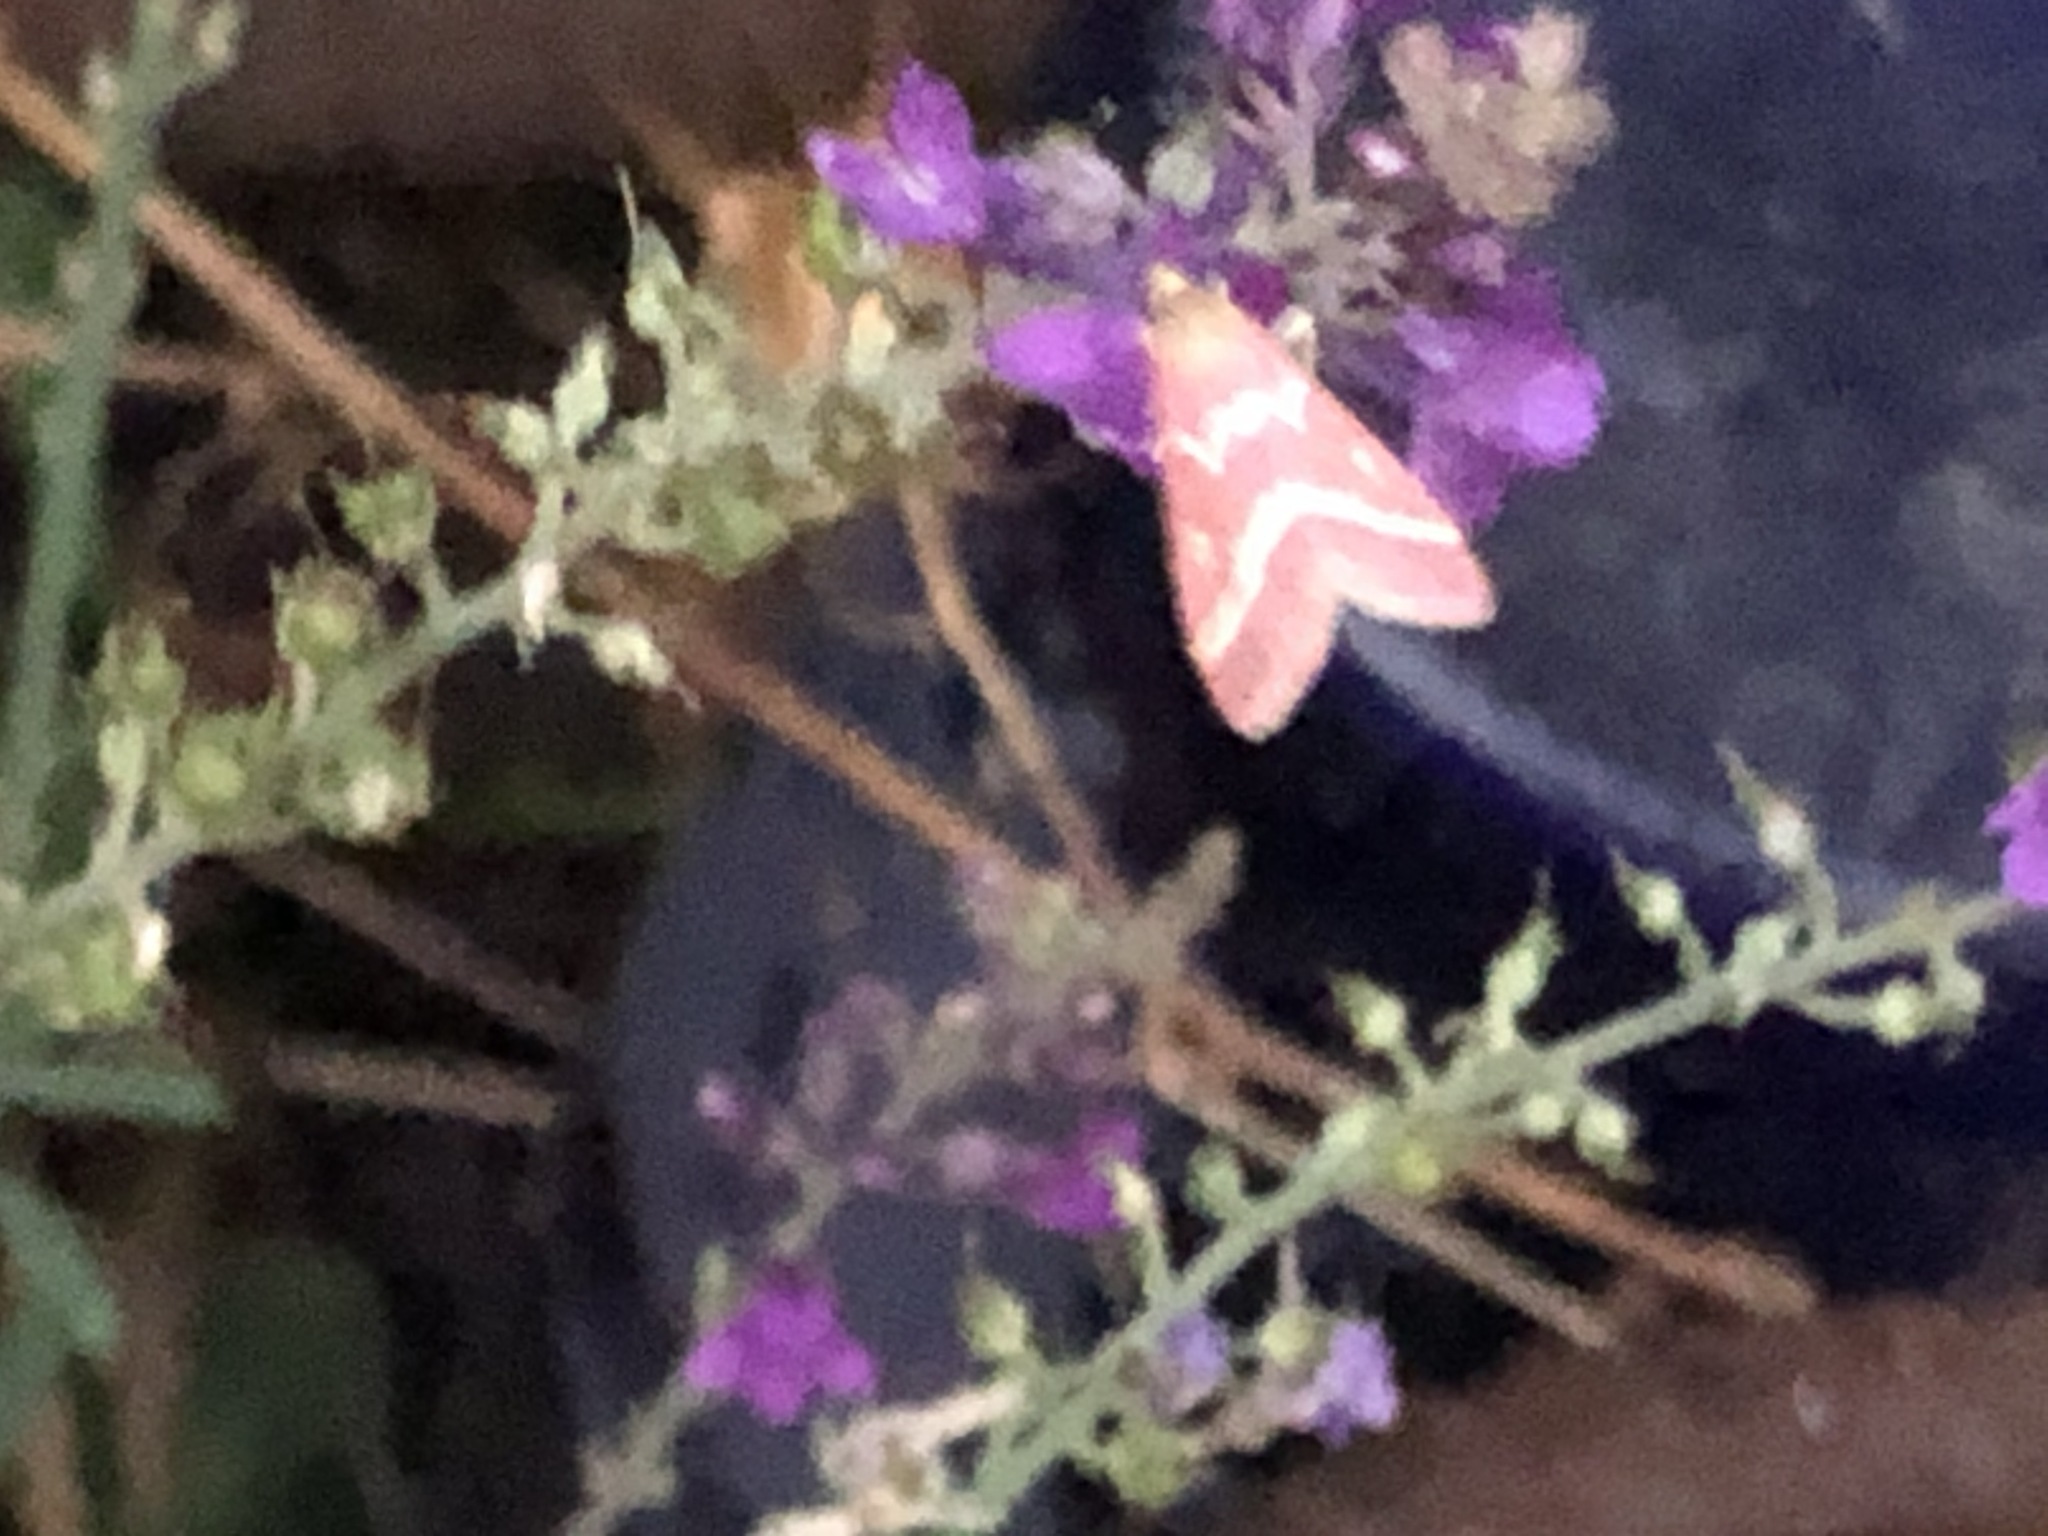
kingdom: Animalia
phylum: Arthropoda
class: Insecta
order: Lepidoptera
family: Crambidae
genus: Pyrausta
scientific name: Pyrausta volupialis
